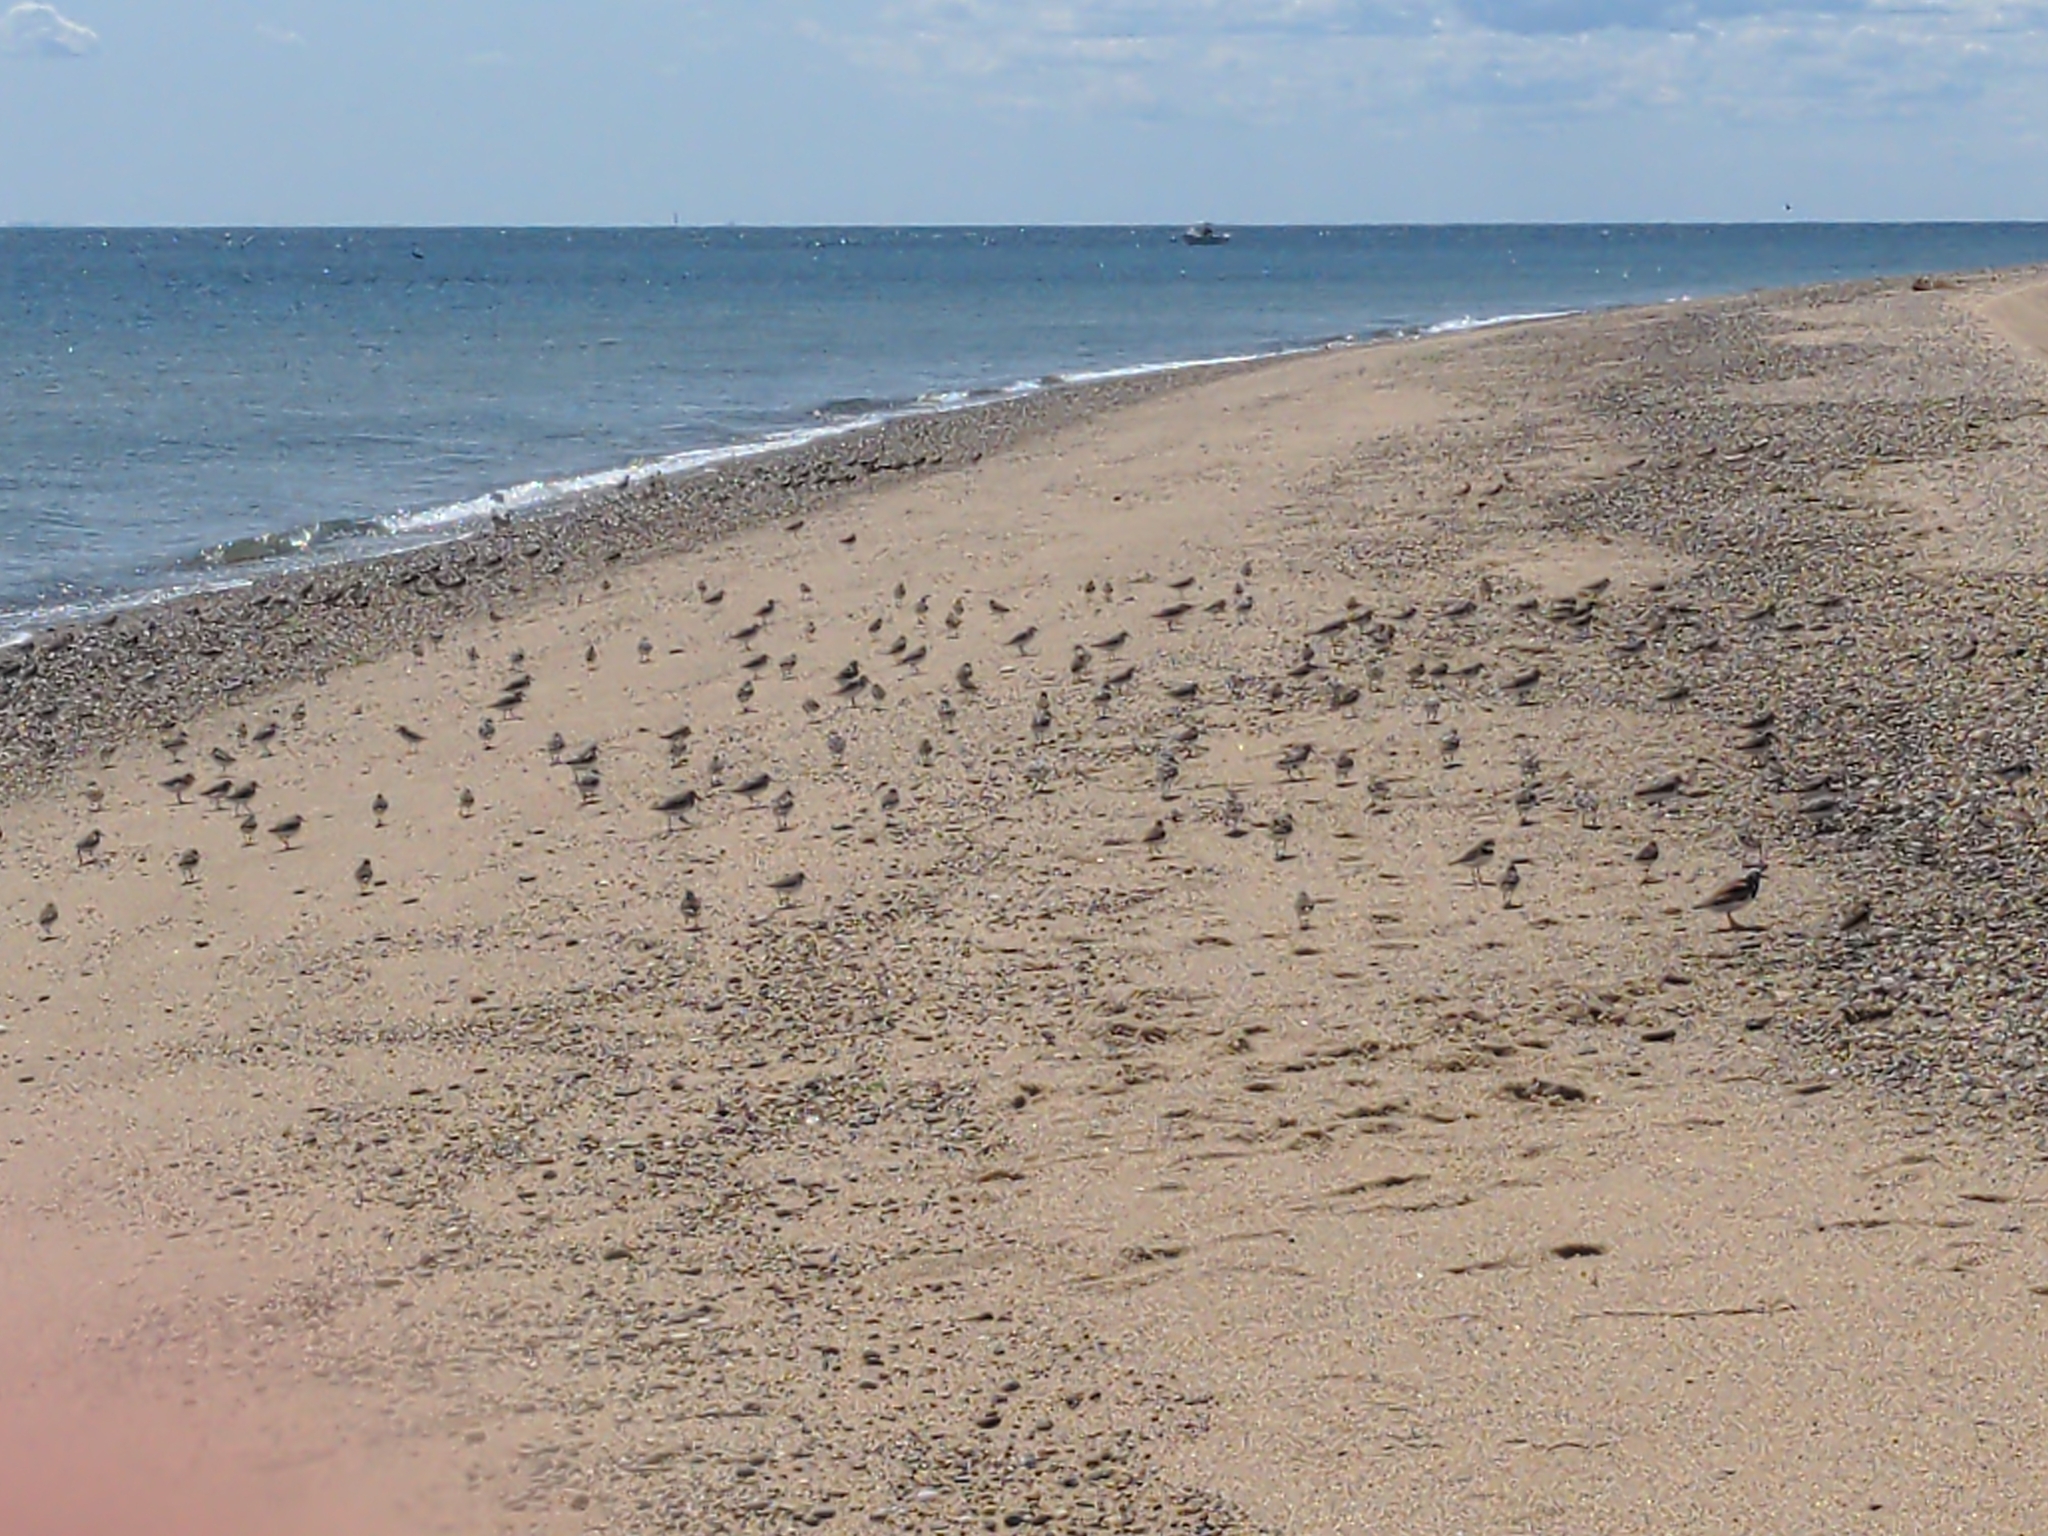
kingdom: Animalia
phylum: Chordata
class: Aves
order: Charadriiformes
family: Scolopacidae
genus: Calidris
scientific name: Calidris alba
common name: Sanderling
